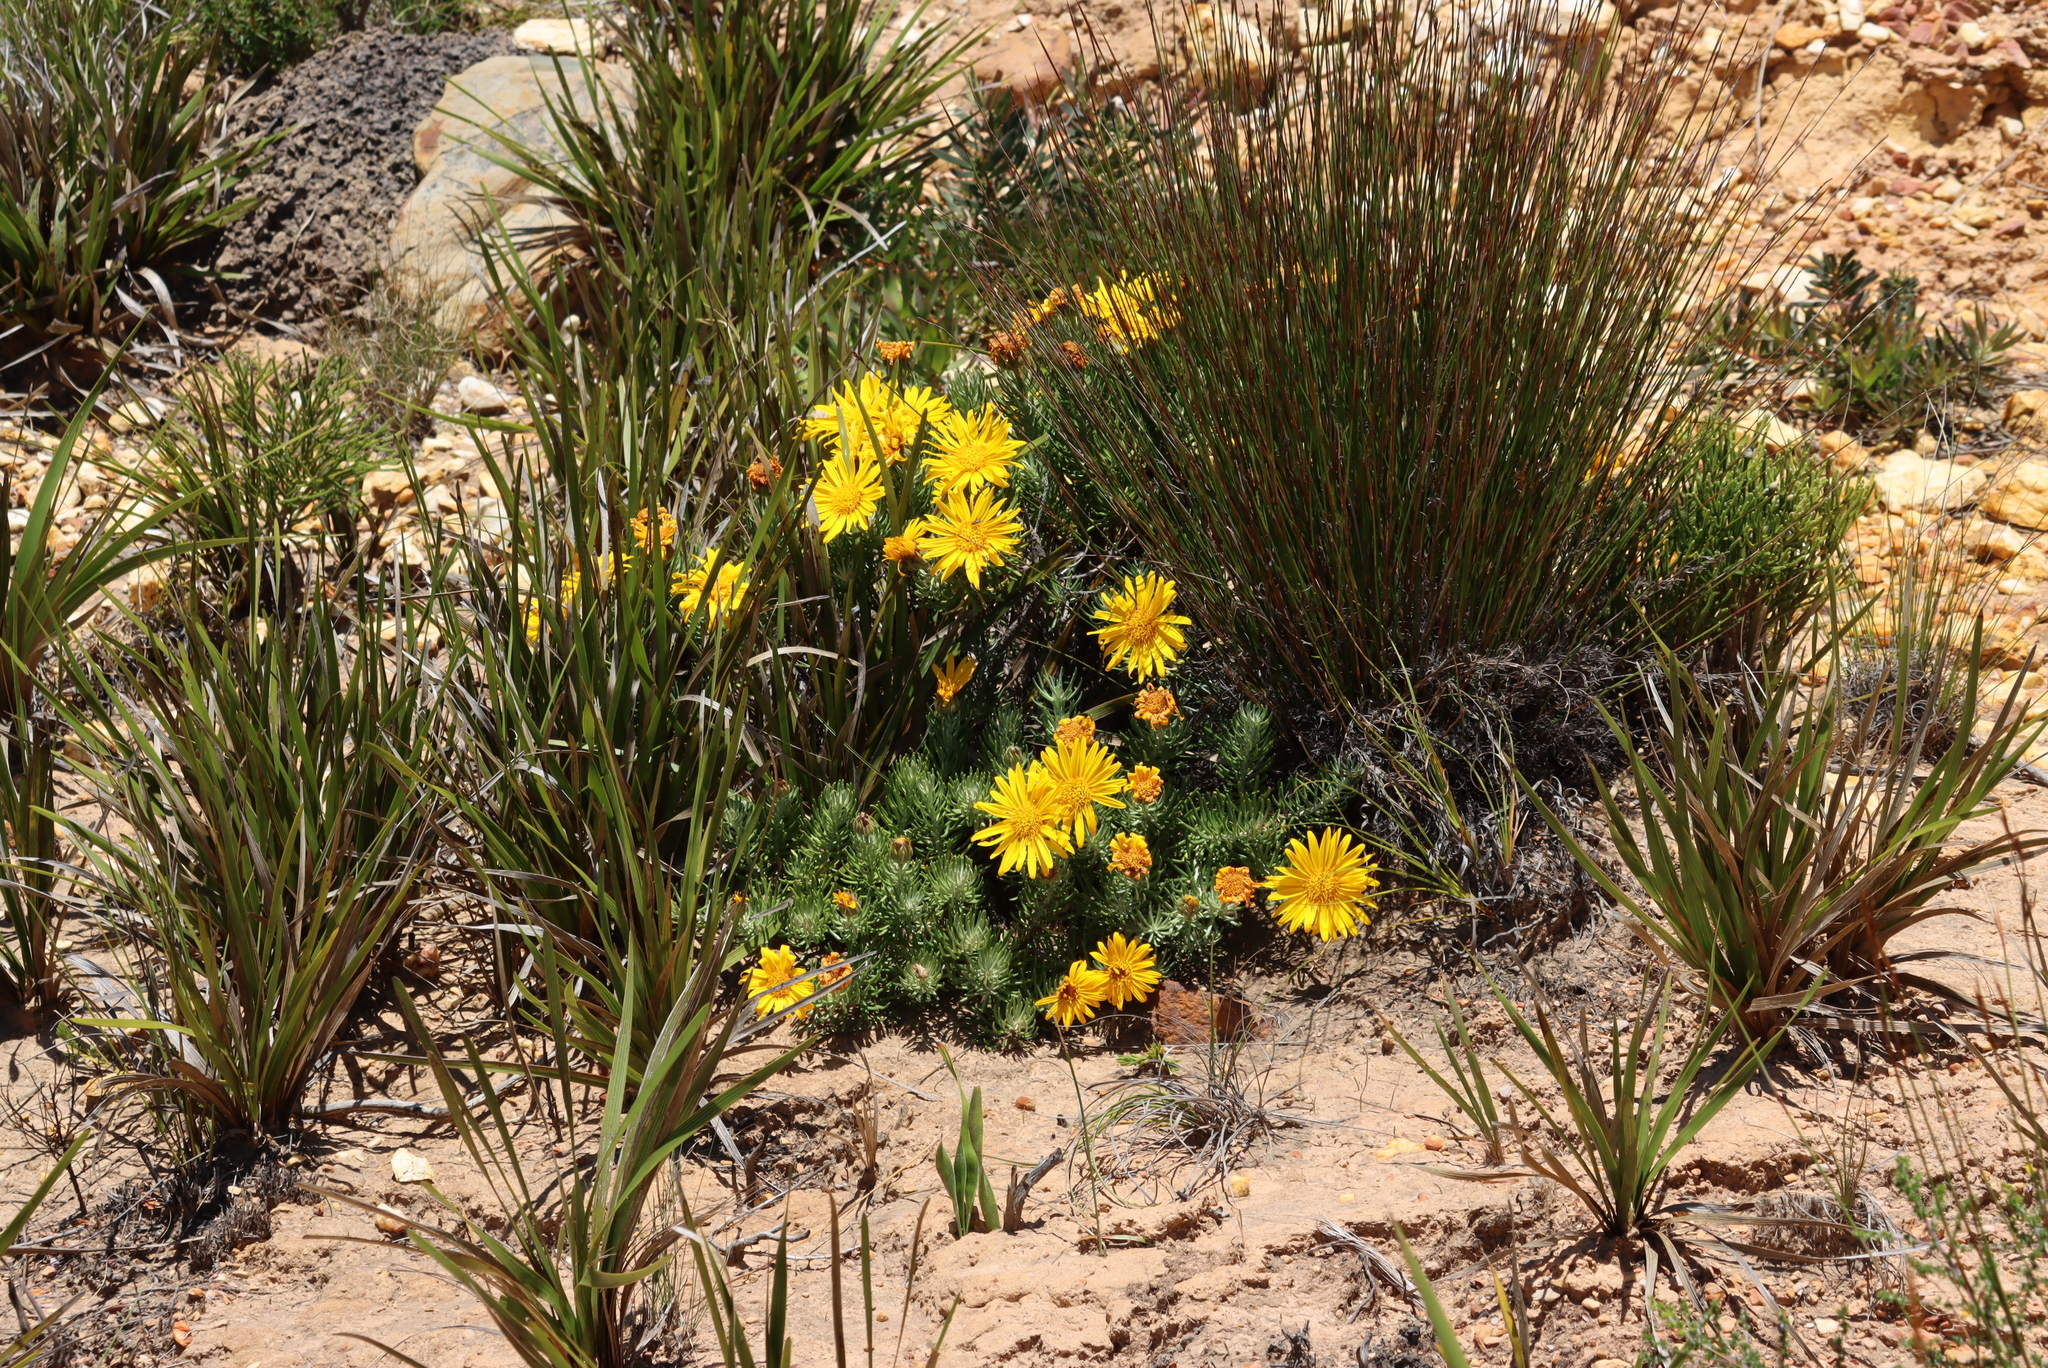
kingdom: Plantae
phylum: Tracheophyta
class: Magnoliopsida
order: Asterales
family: Asteraceae
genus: Heterolepis
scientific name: Heterolepis aliena
